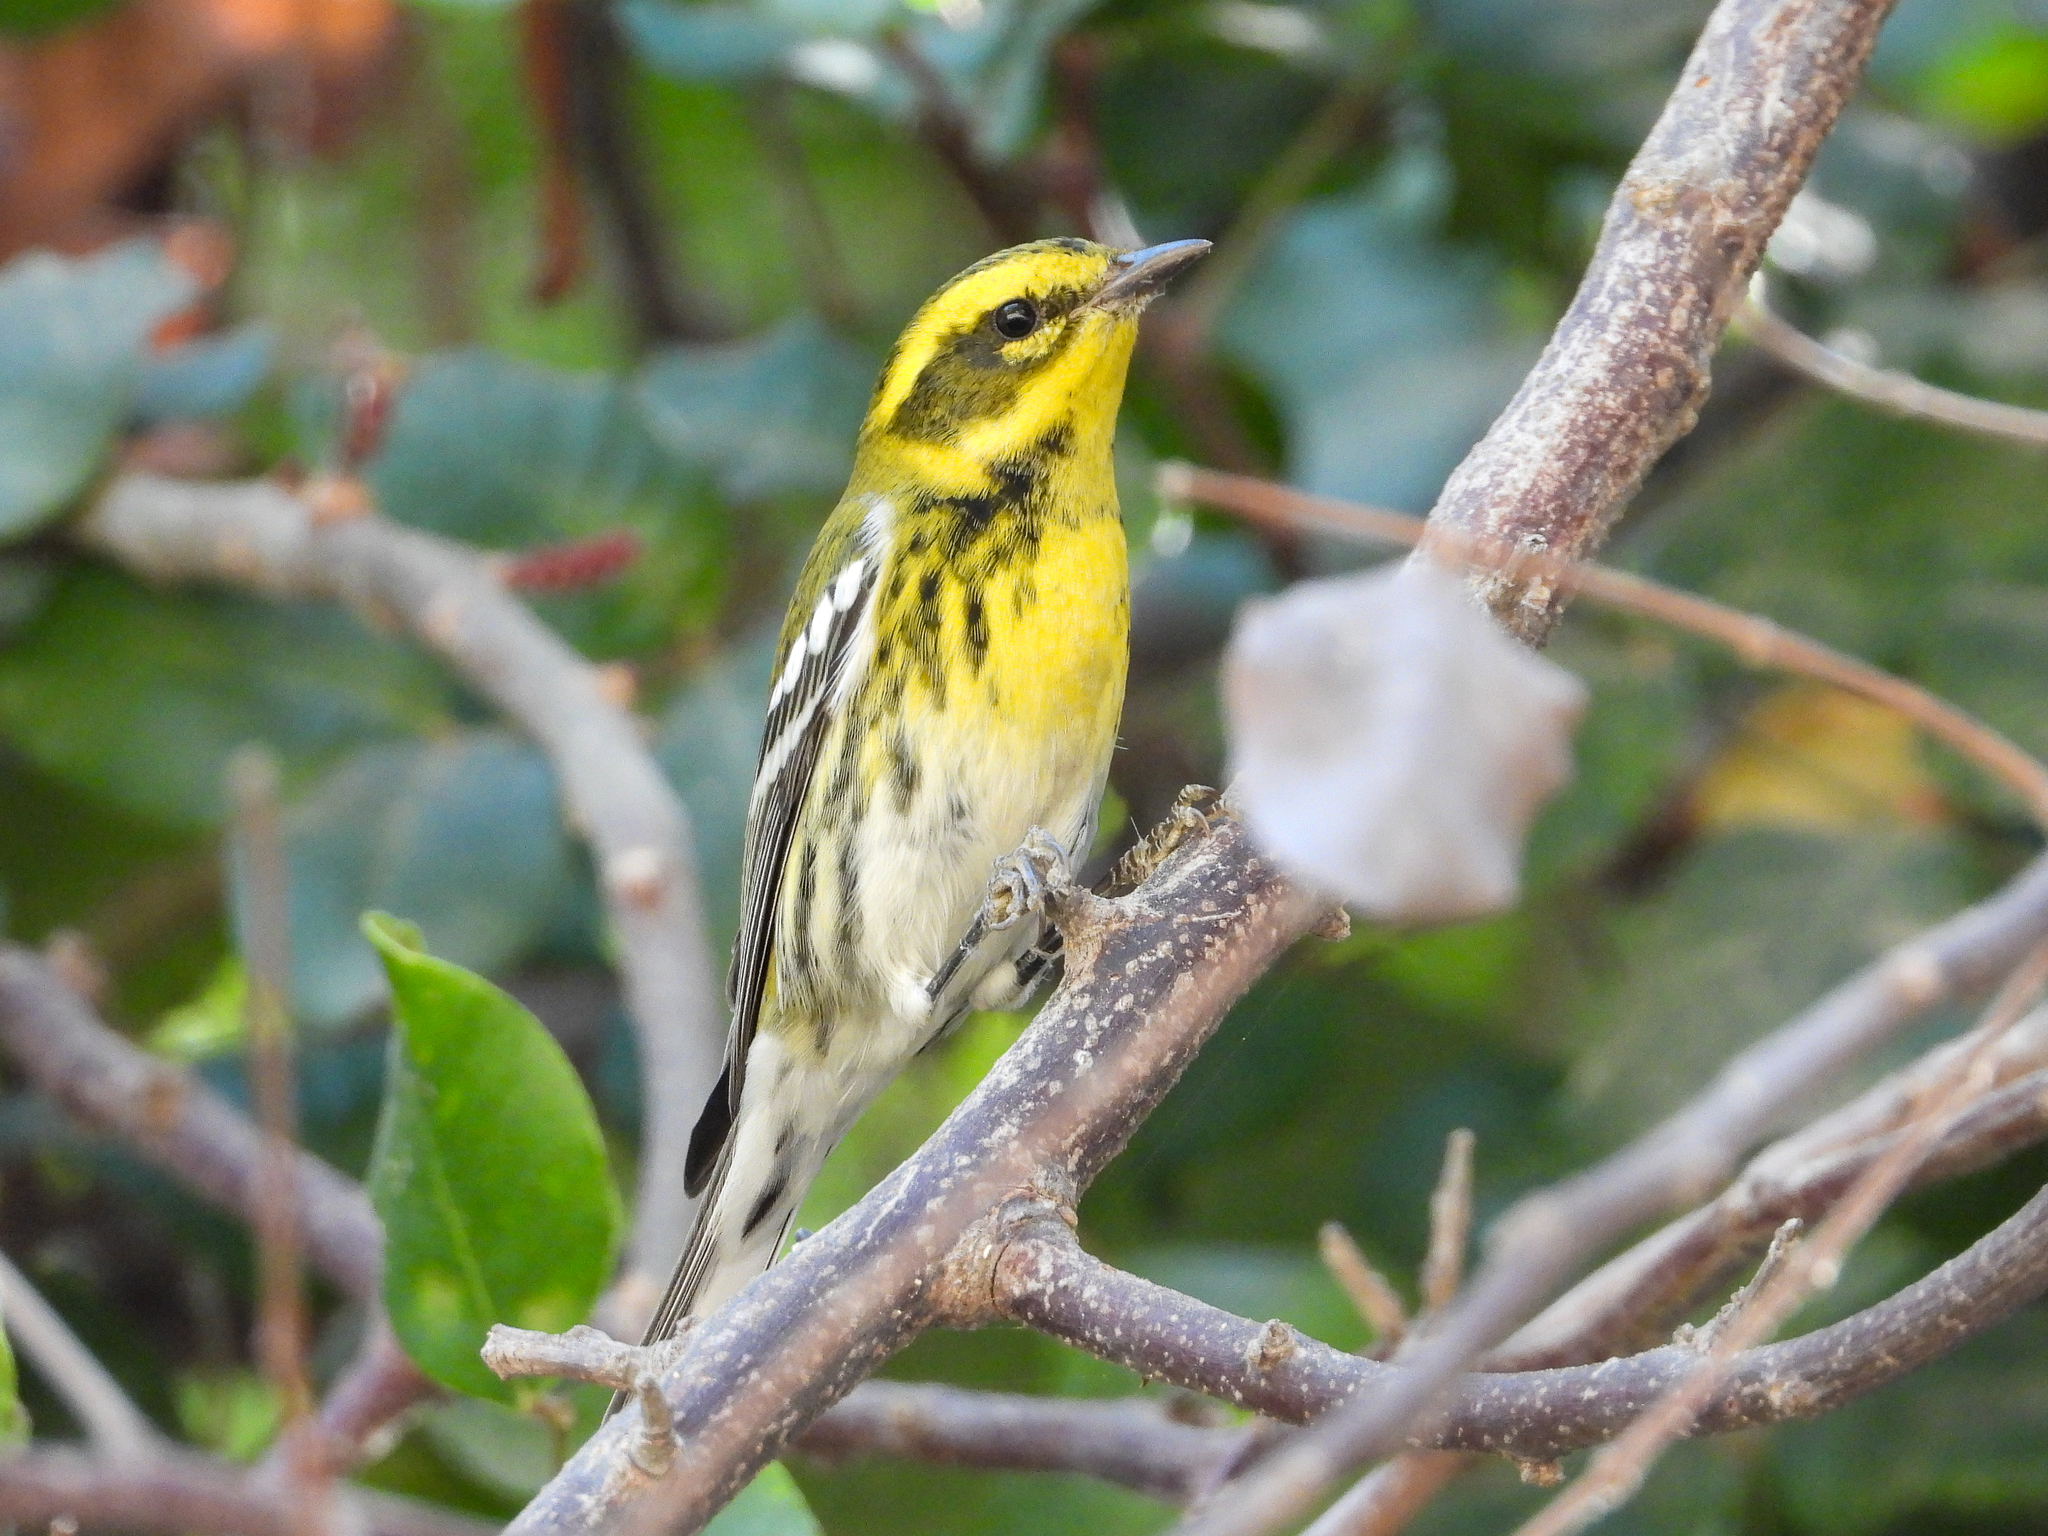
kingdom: Animalia
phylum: Chordata
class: Aves
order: Passeriformes
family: Parulidae
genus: Setophaga
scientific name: Setophaga townsendi
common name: Townsend's warbler
